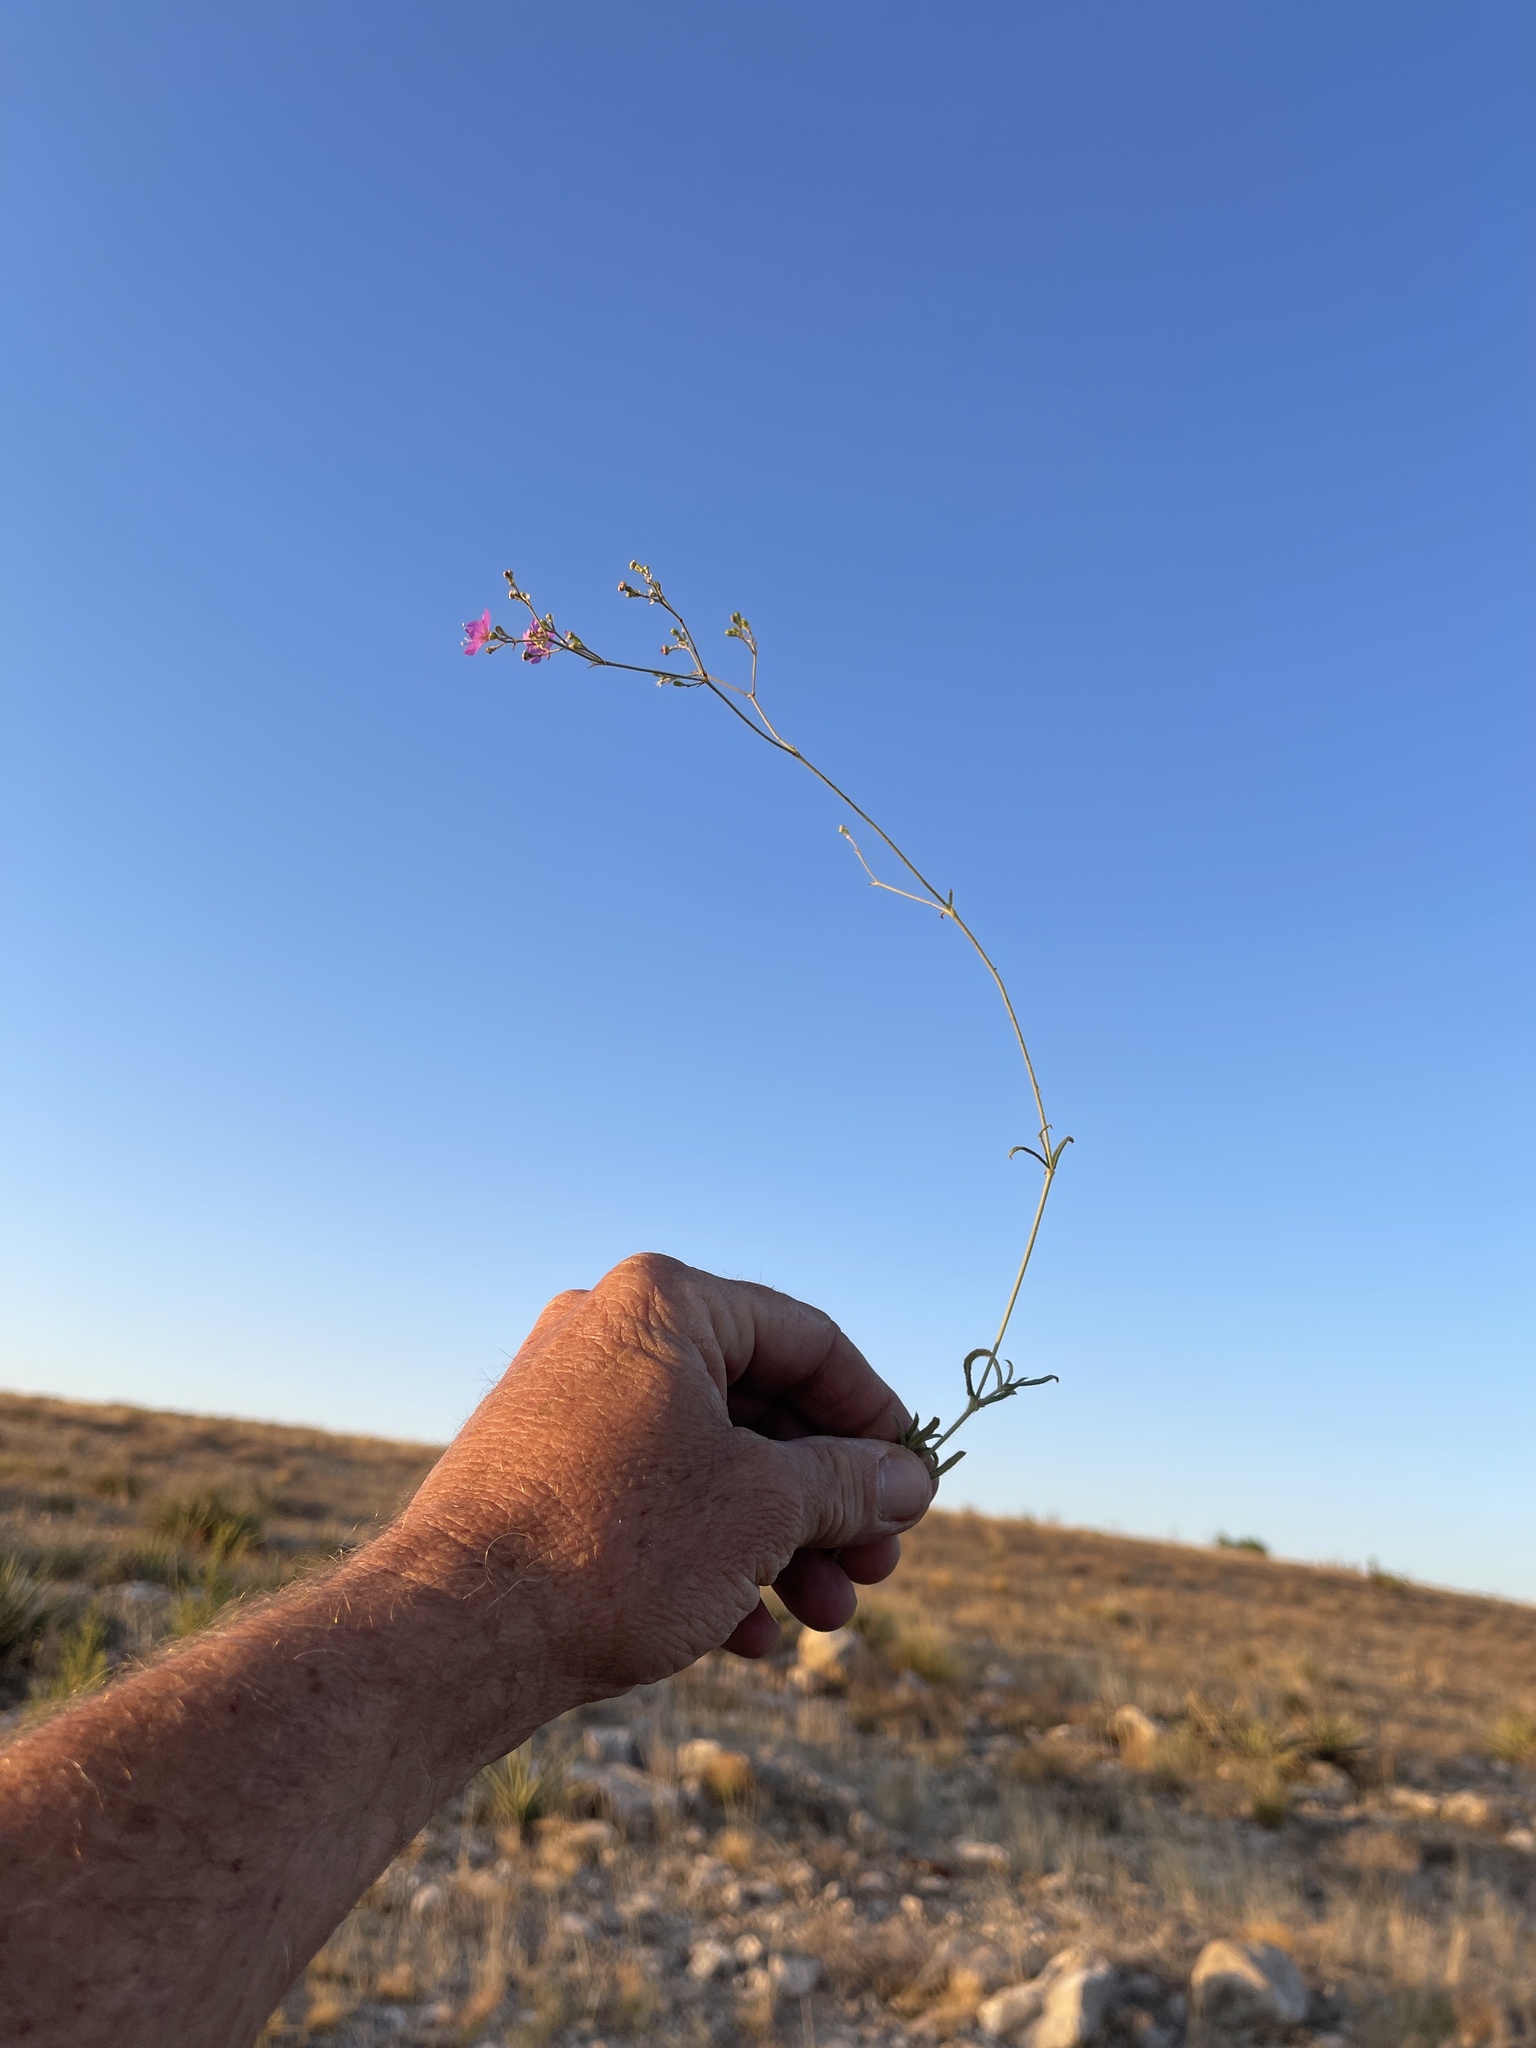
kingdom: Plantae
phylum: Tracheophyta
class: Magnoliopsida
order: Caryophyllales
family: Nyctaginaceae
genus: Mirabilis
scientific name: Mirabilis linearis
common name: Linear-leaved four-o'clock
